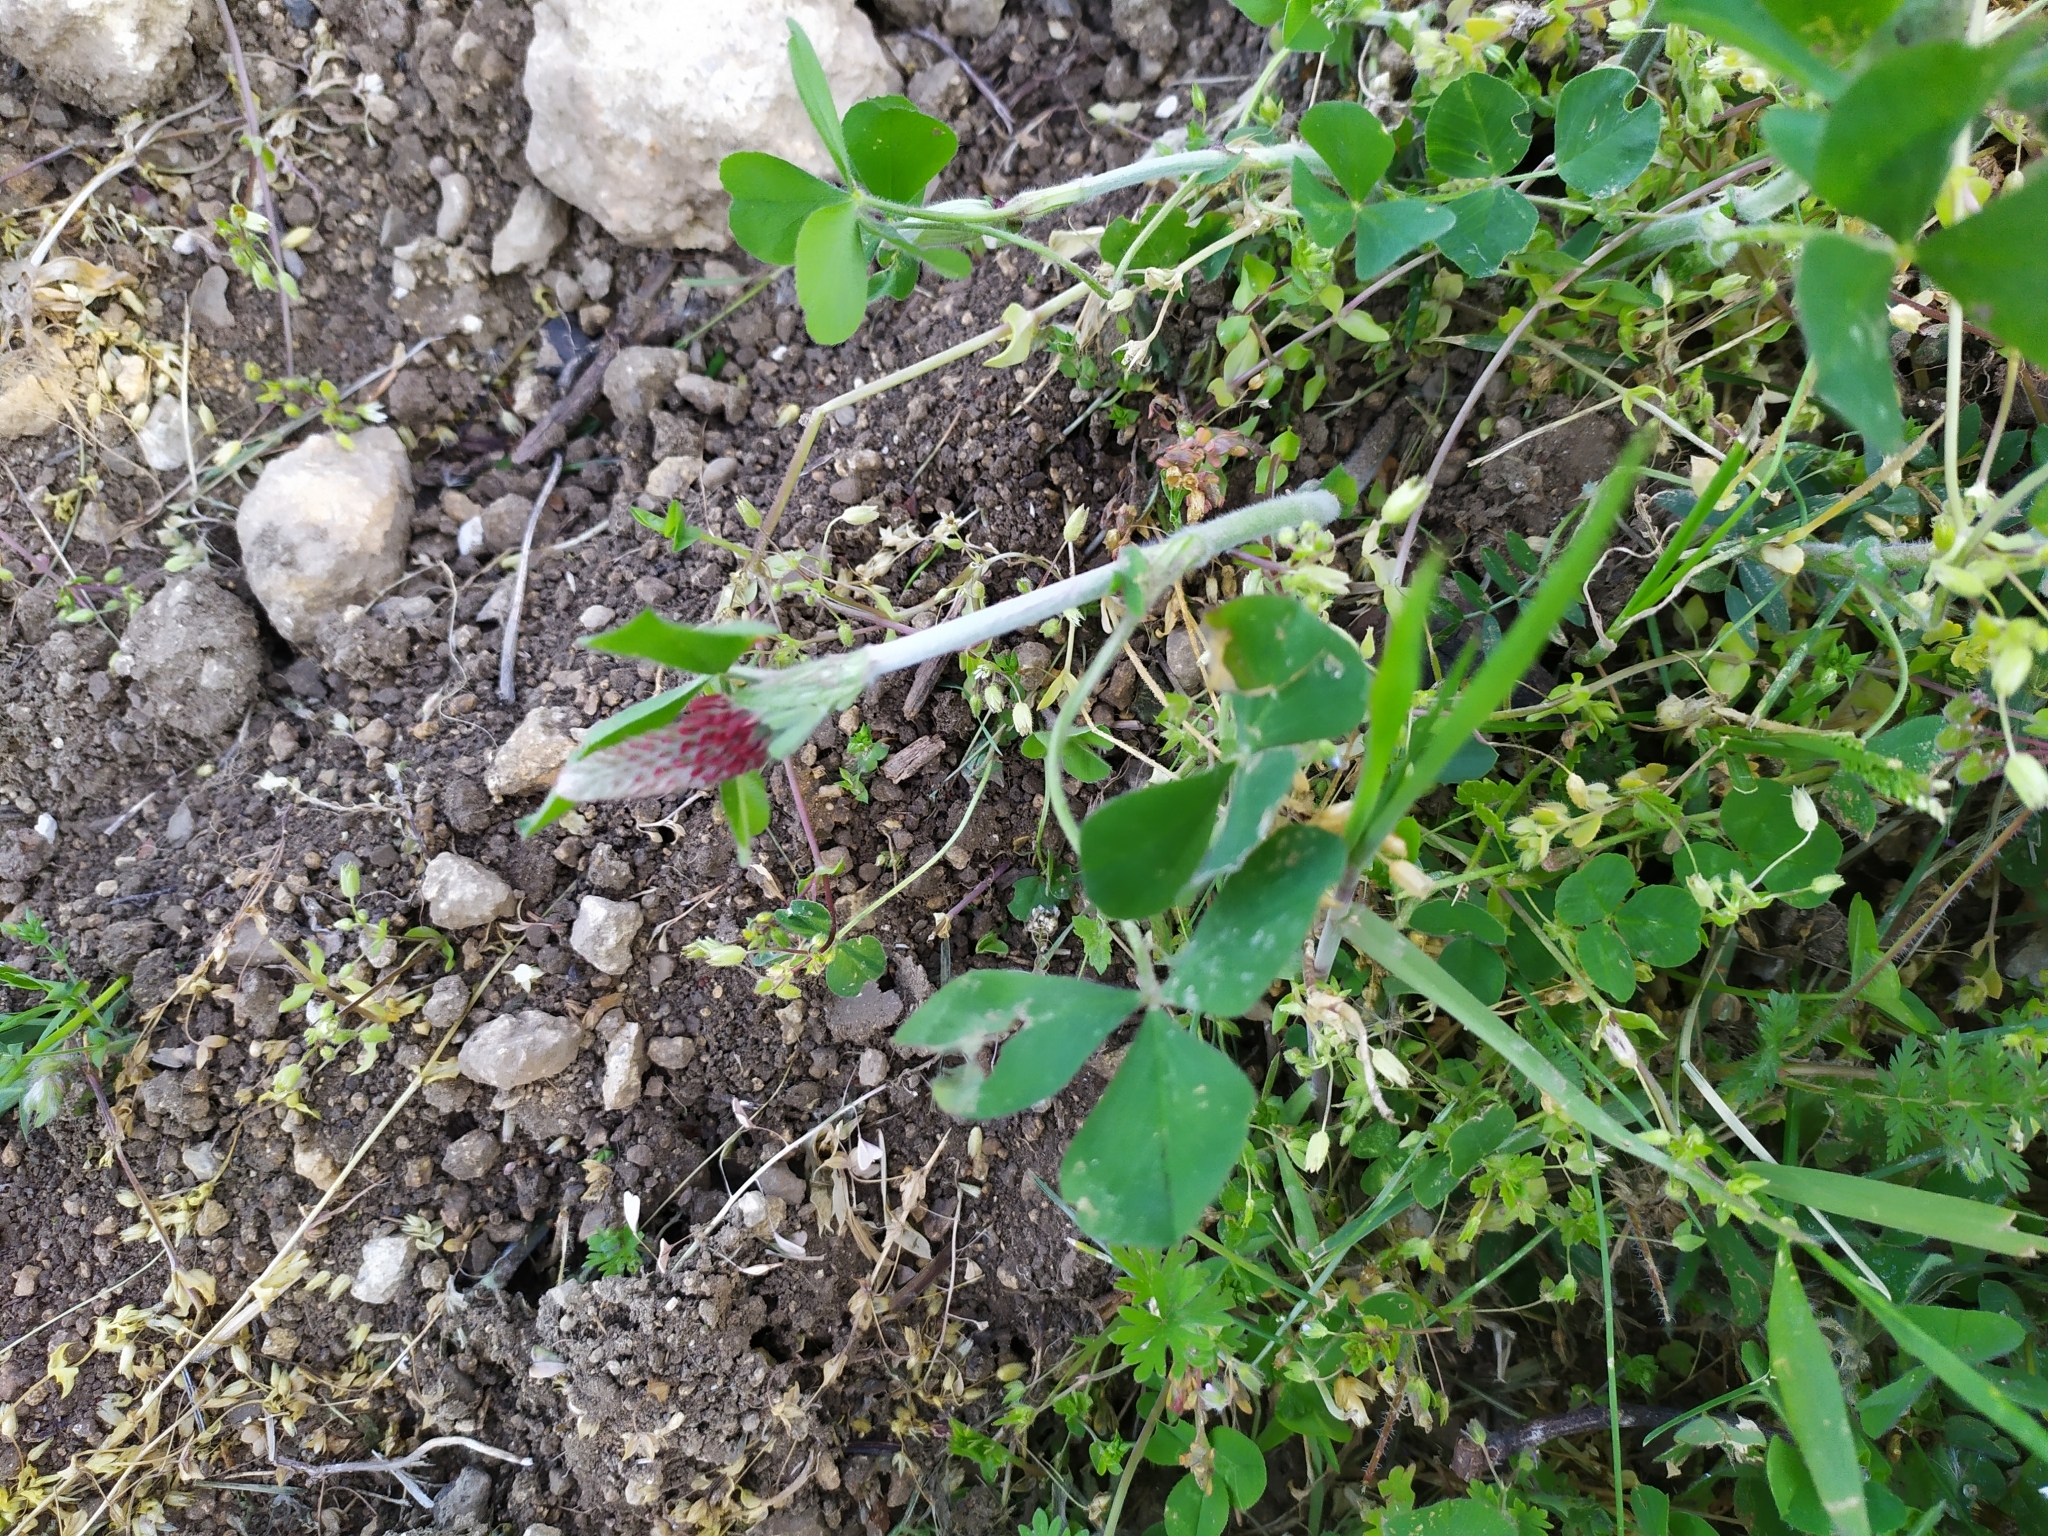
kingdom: Plantae
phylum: Tracheophyta
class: Magnoliopsida
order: Fabales
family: Fabaceae
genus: Trifolium
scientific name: Trifolium incarnatum
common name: Crimson clover
